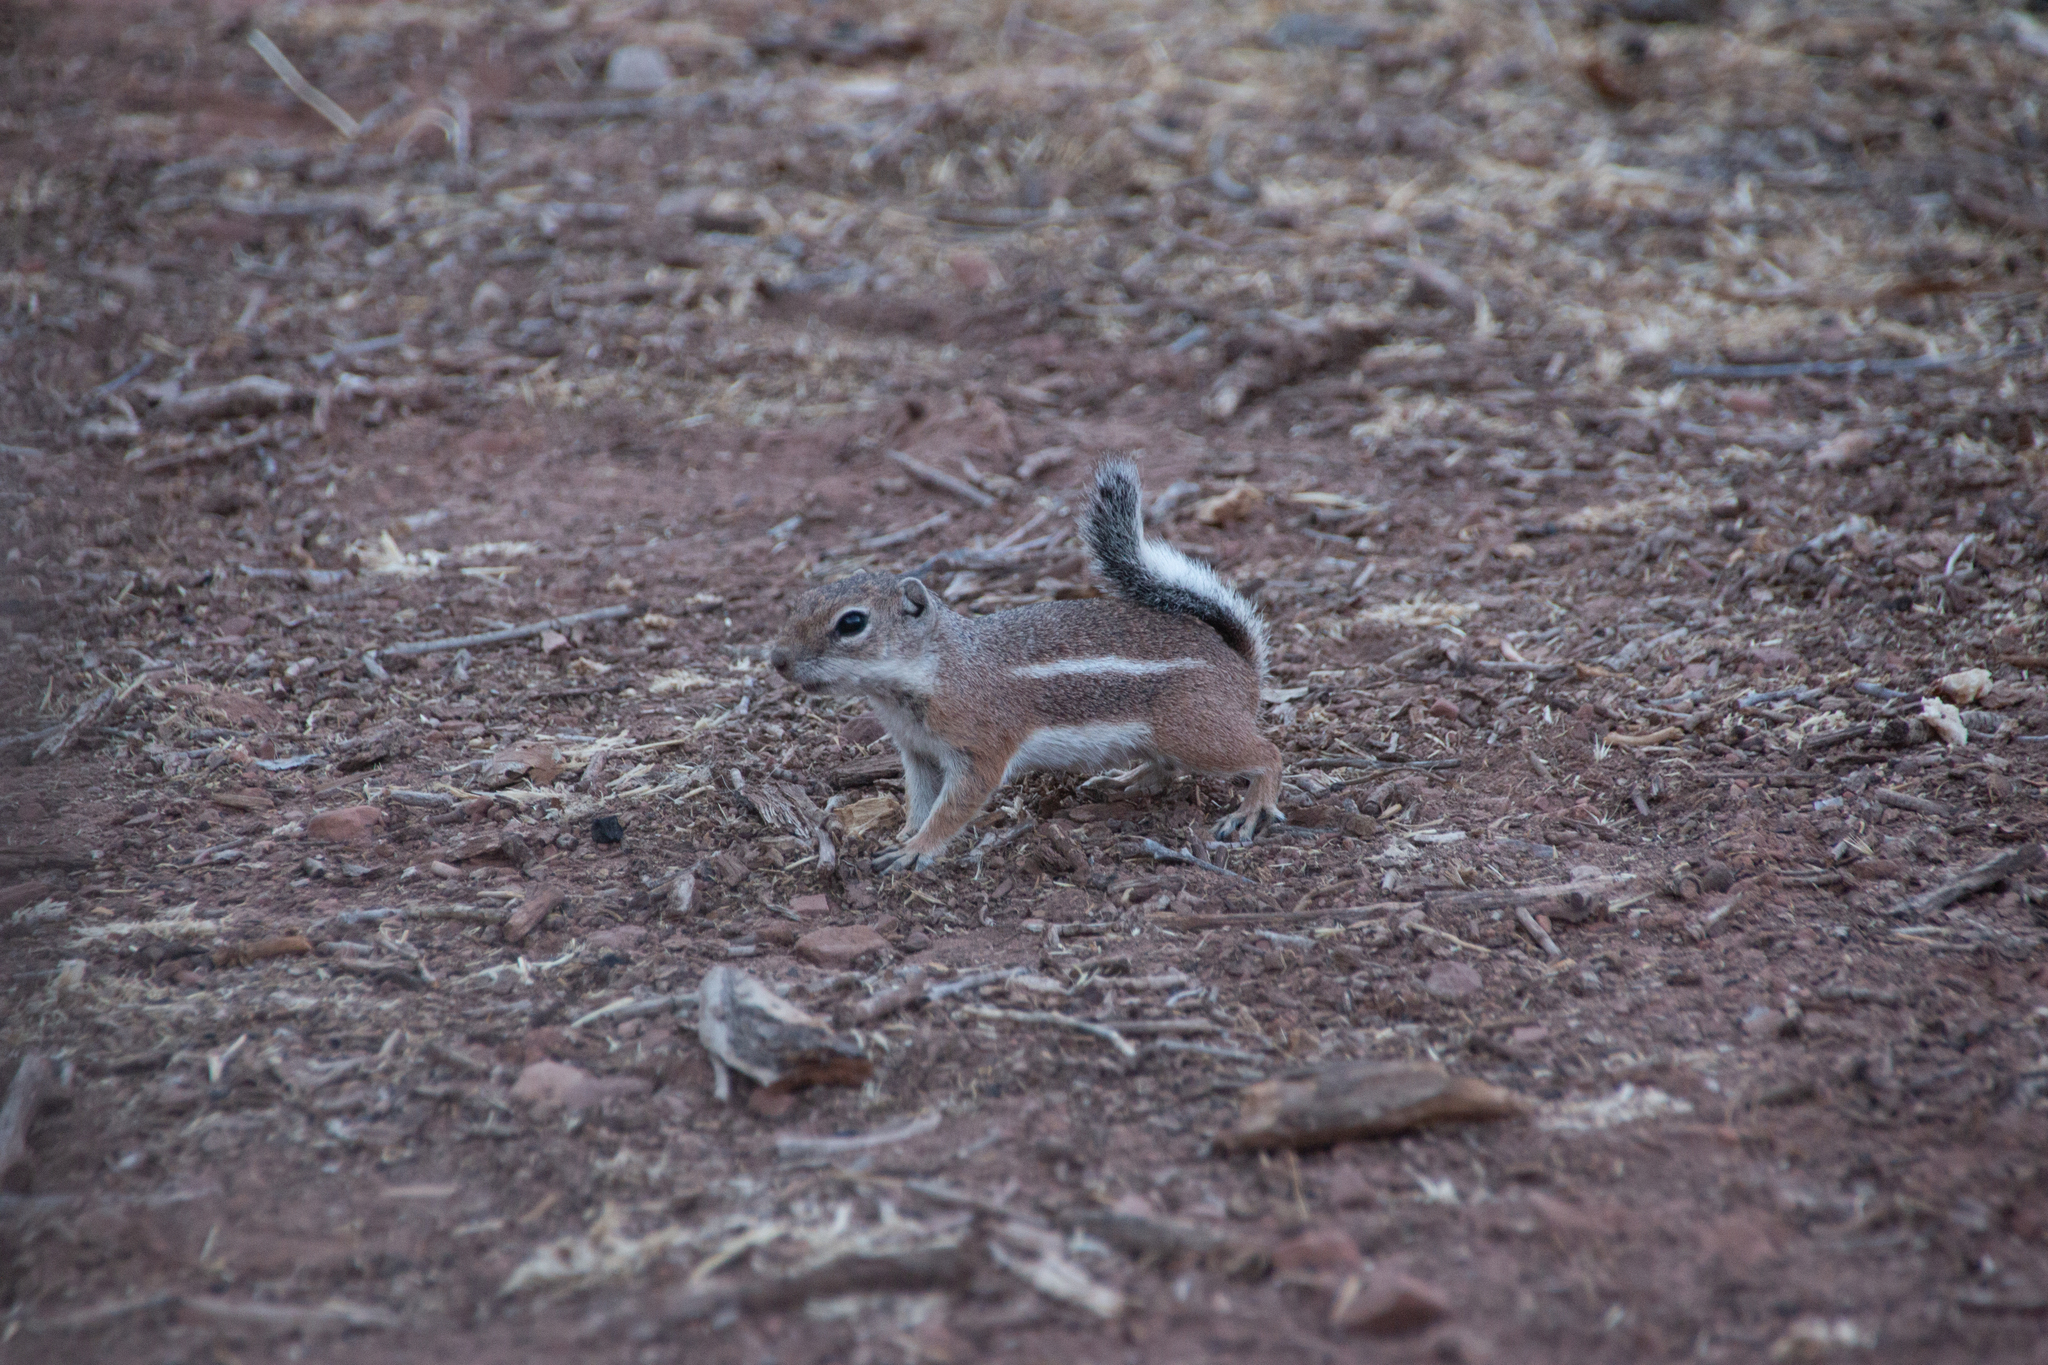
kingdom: Animalia
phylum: Chordata
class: Mammalia
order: Rodentia
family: Sciuridae
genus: Ammospermophilus
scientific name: Ammospermophilus leucurus
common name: White-tailed antelope squirrel
